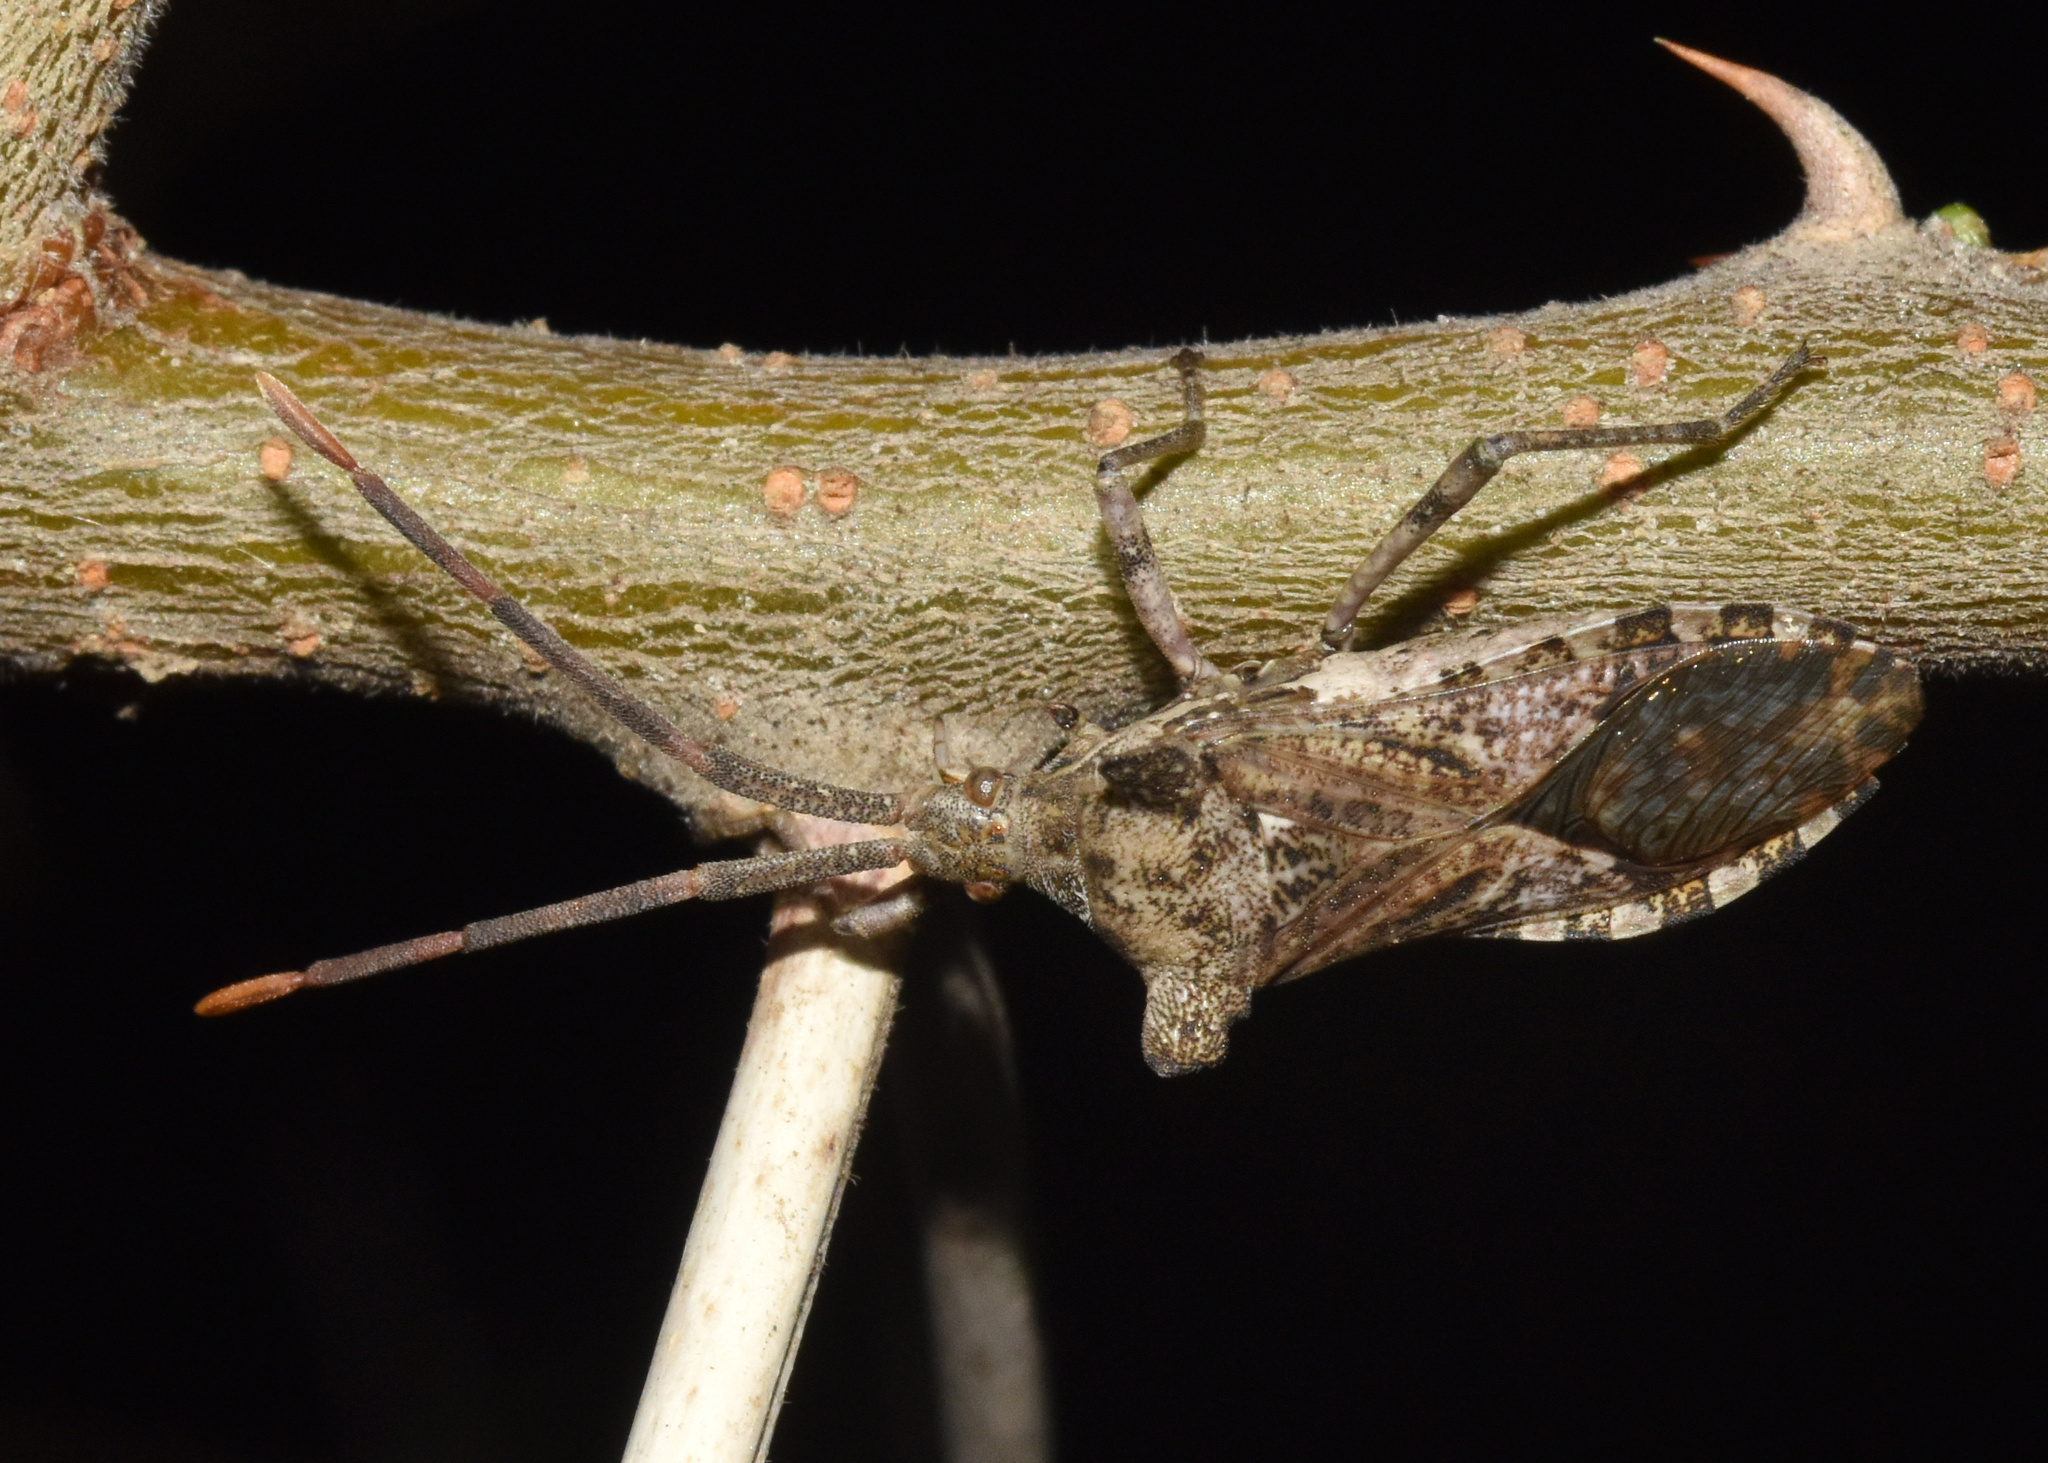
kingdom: Animalia
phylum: Arthropoda
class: Insecta
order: Hemiptera
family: Coreidae
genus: Prismatocerus
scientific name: Prismatocerus auriculatus
